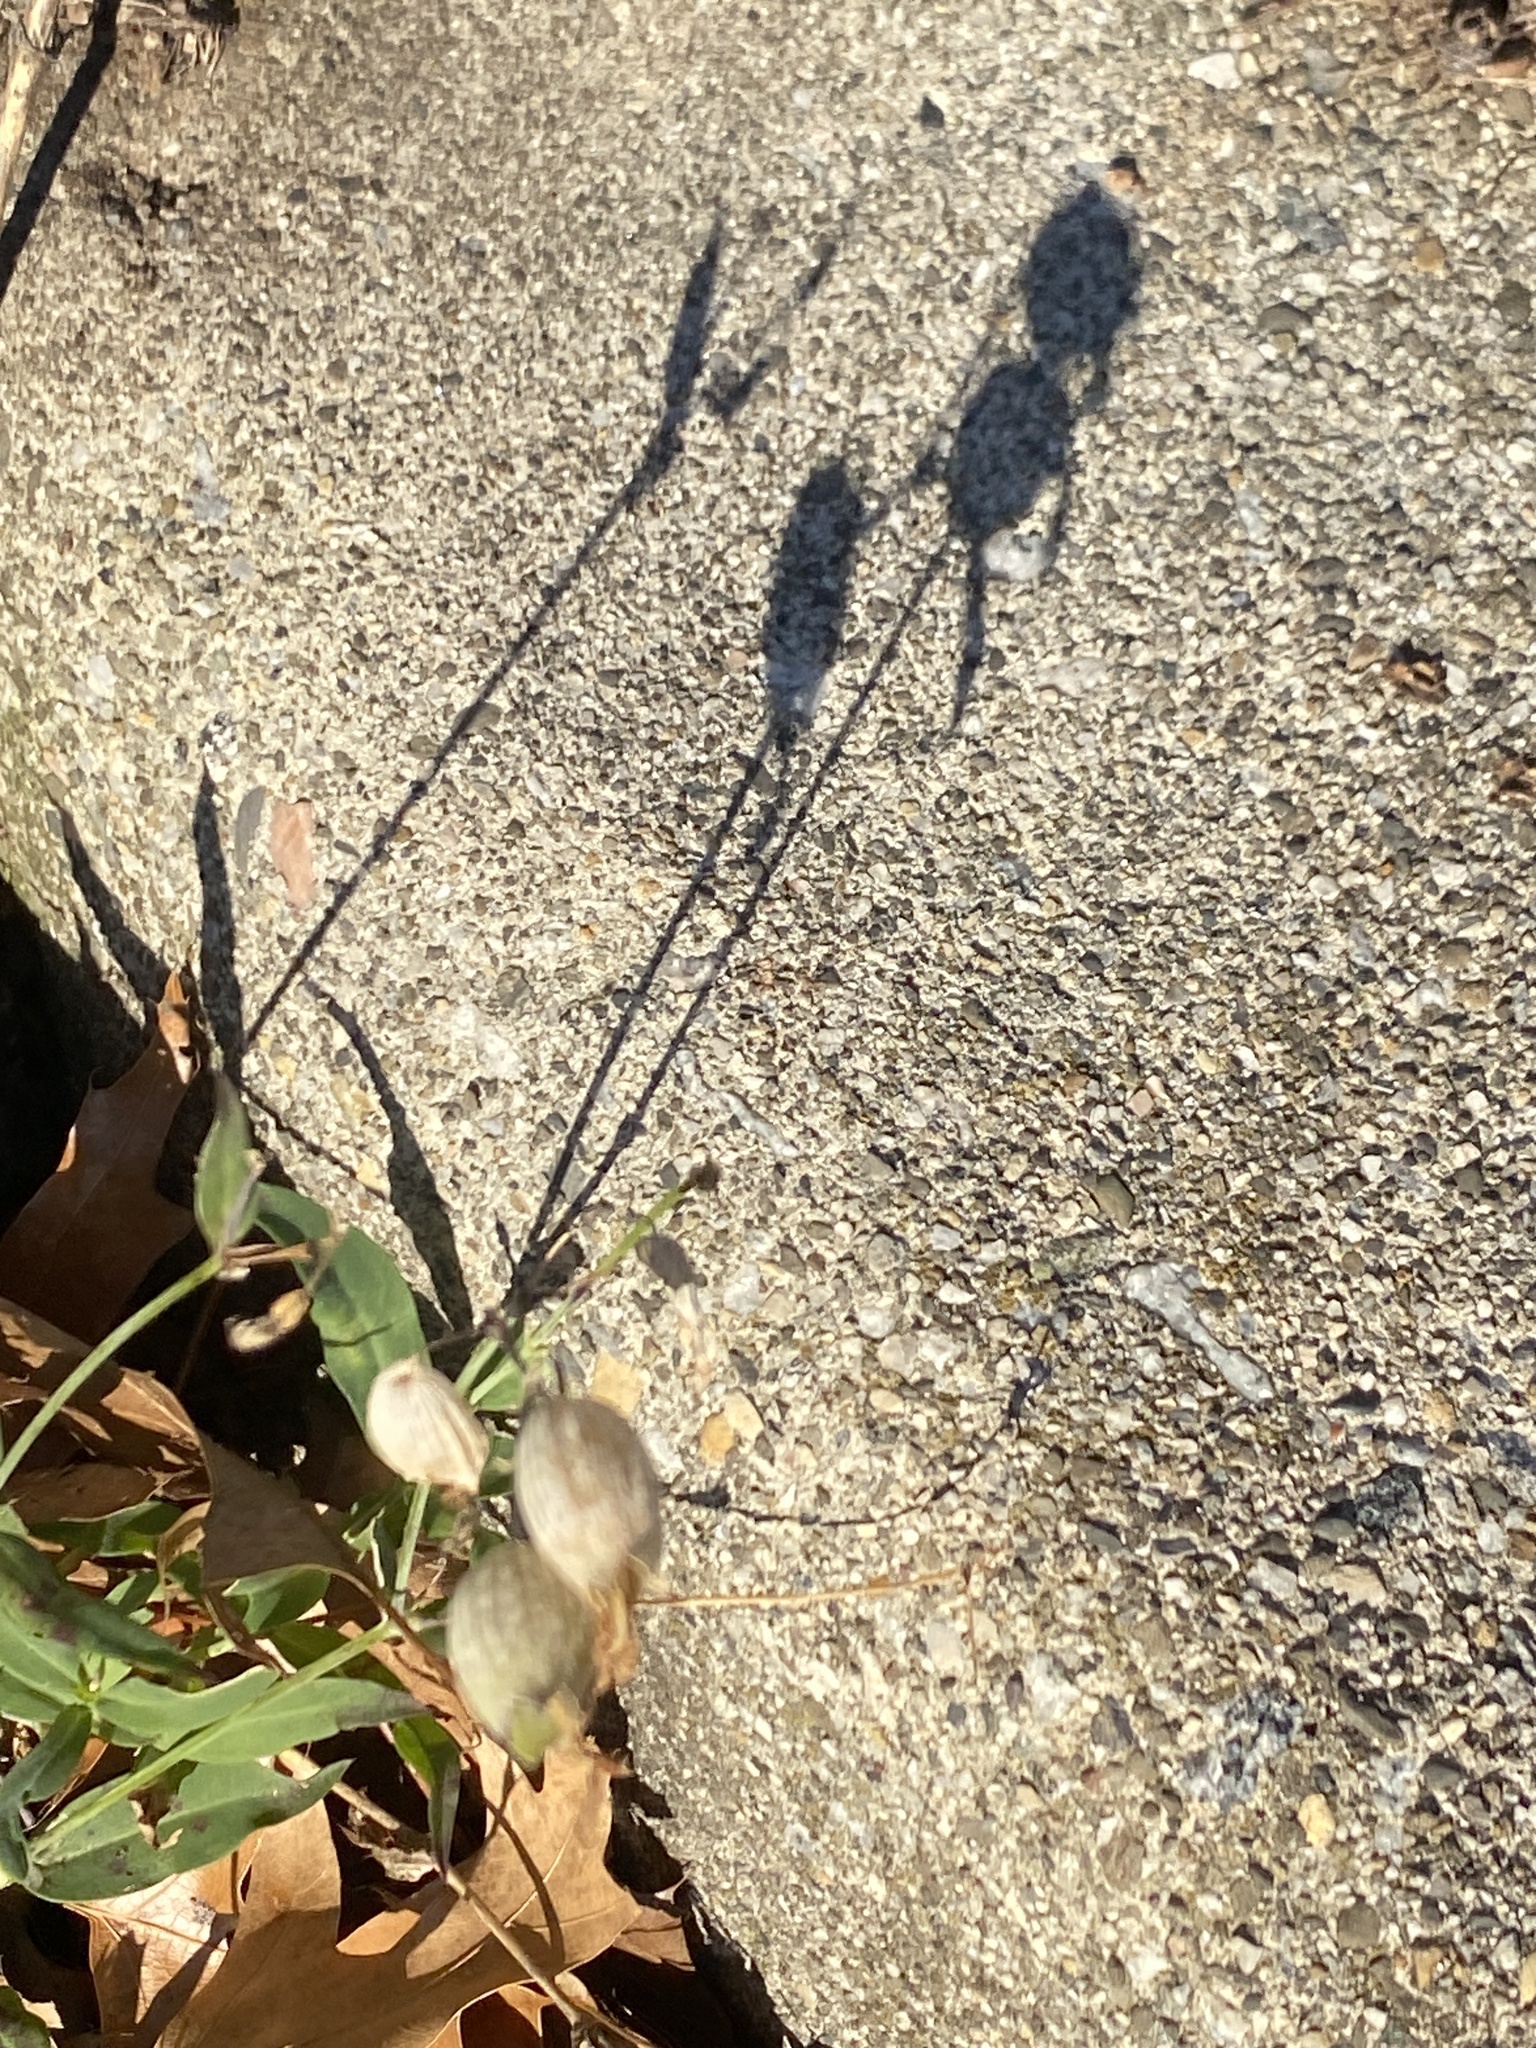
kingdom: Plantae
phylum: Tracheophyta
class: Magnoliopsida
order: Caryophyllales
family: Caryophyllaceae
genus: Silene
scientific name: Silene vulgaris
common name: Bladder campion
